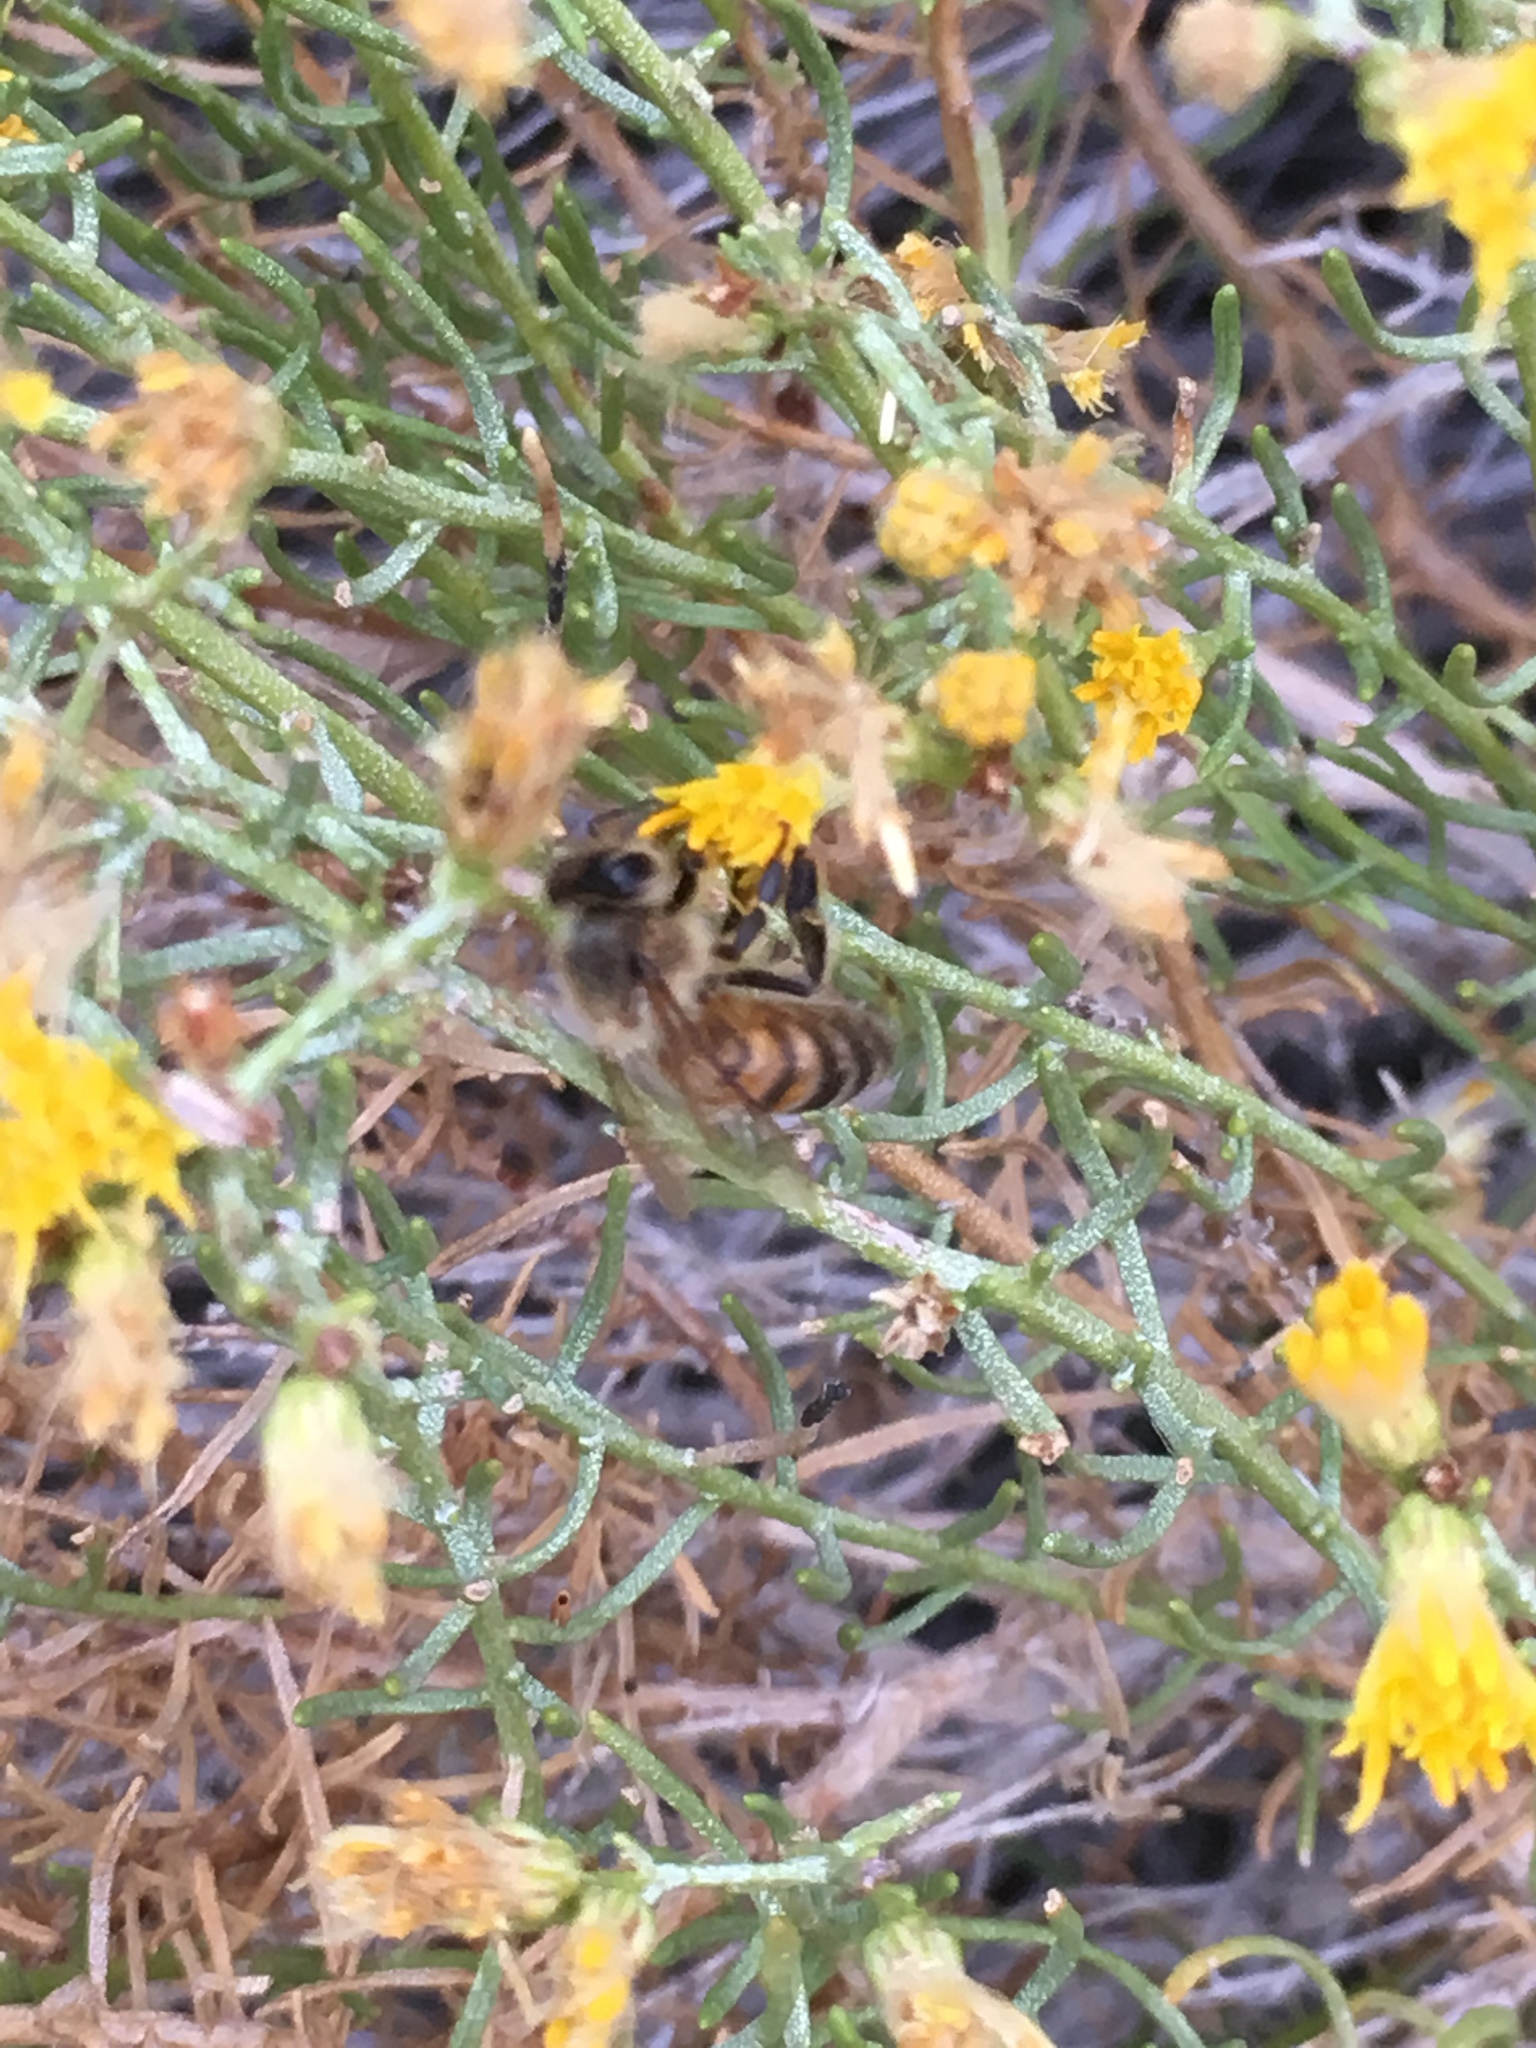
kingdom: Animalia
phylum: Arthropoda
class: Insecta
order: Hymenoptera
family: Apidae
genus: Apis
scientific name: Apis mellifera
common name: Honey bee
